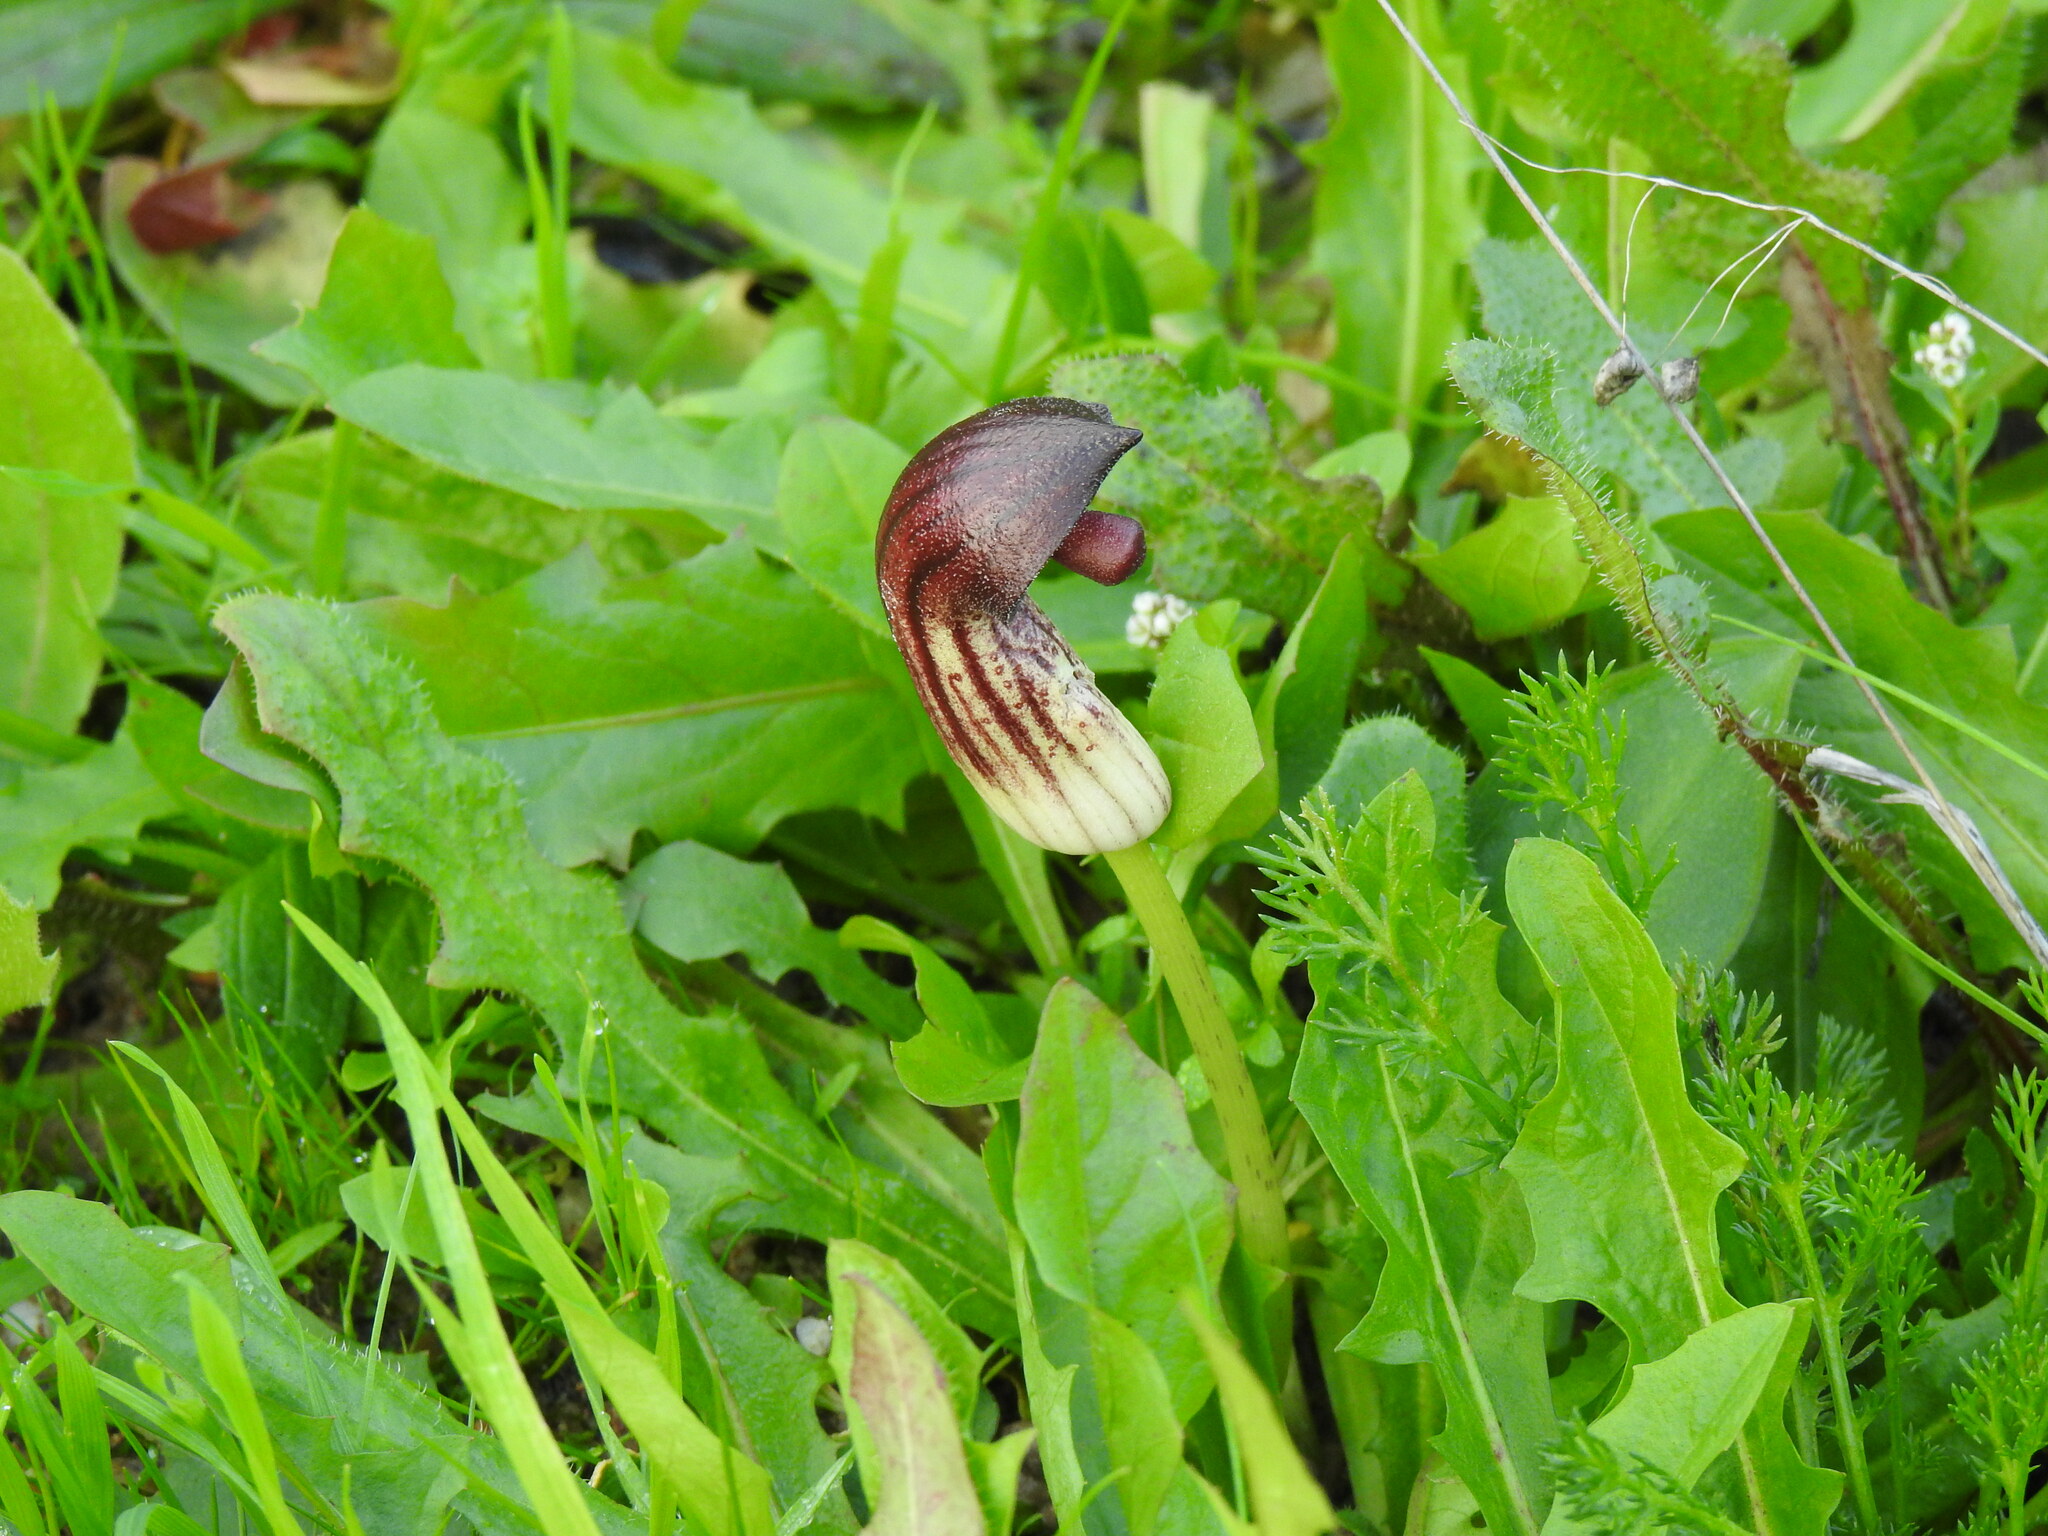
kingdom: Plantae
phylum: Tracheophyta
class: Liliopsida
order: Alismatales
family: Araceae
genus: Arisarum
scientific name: Arisarum simorrhinum
